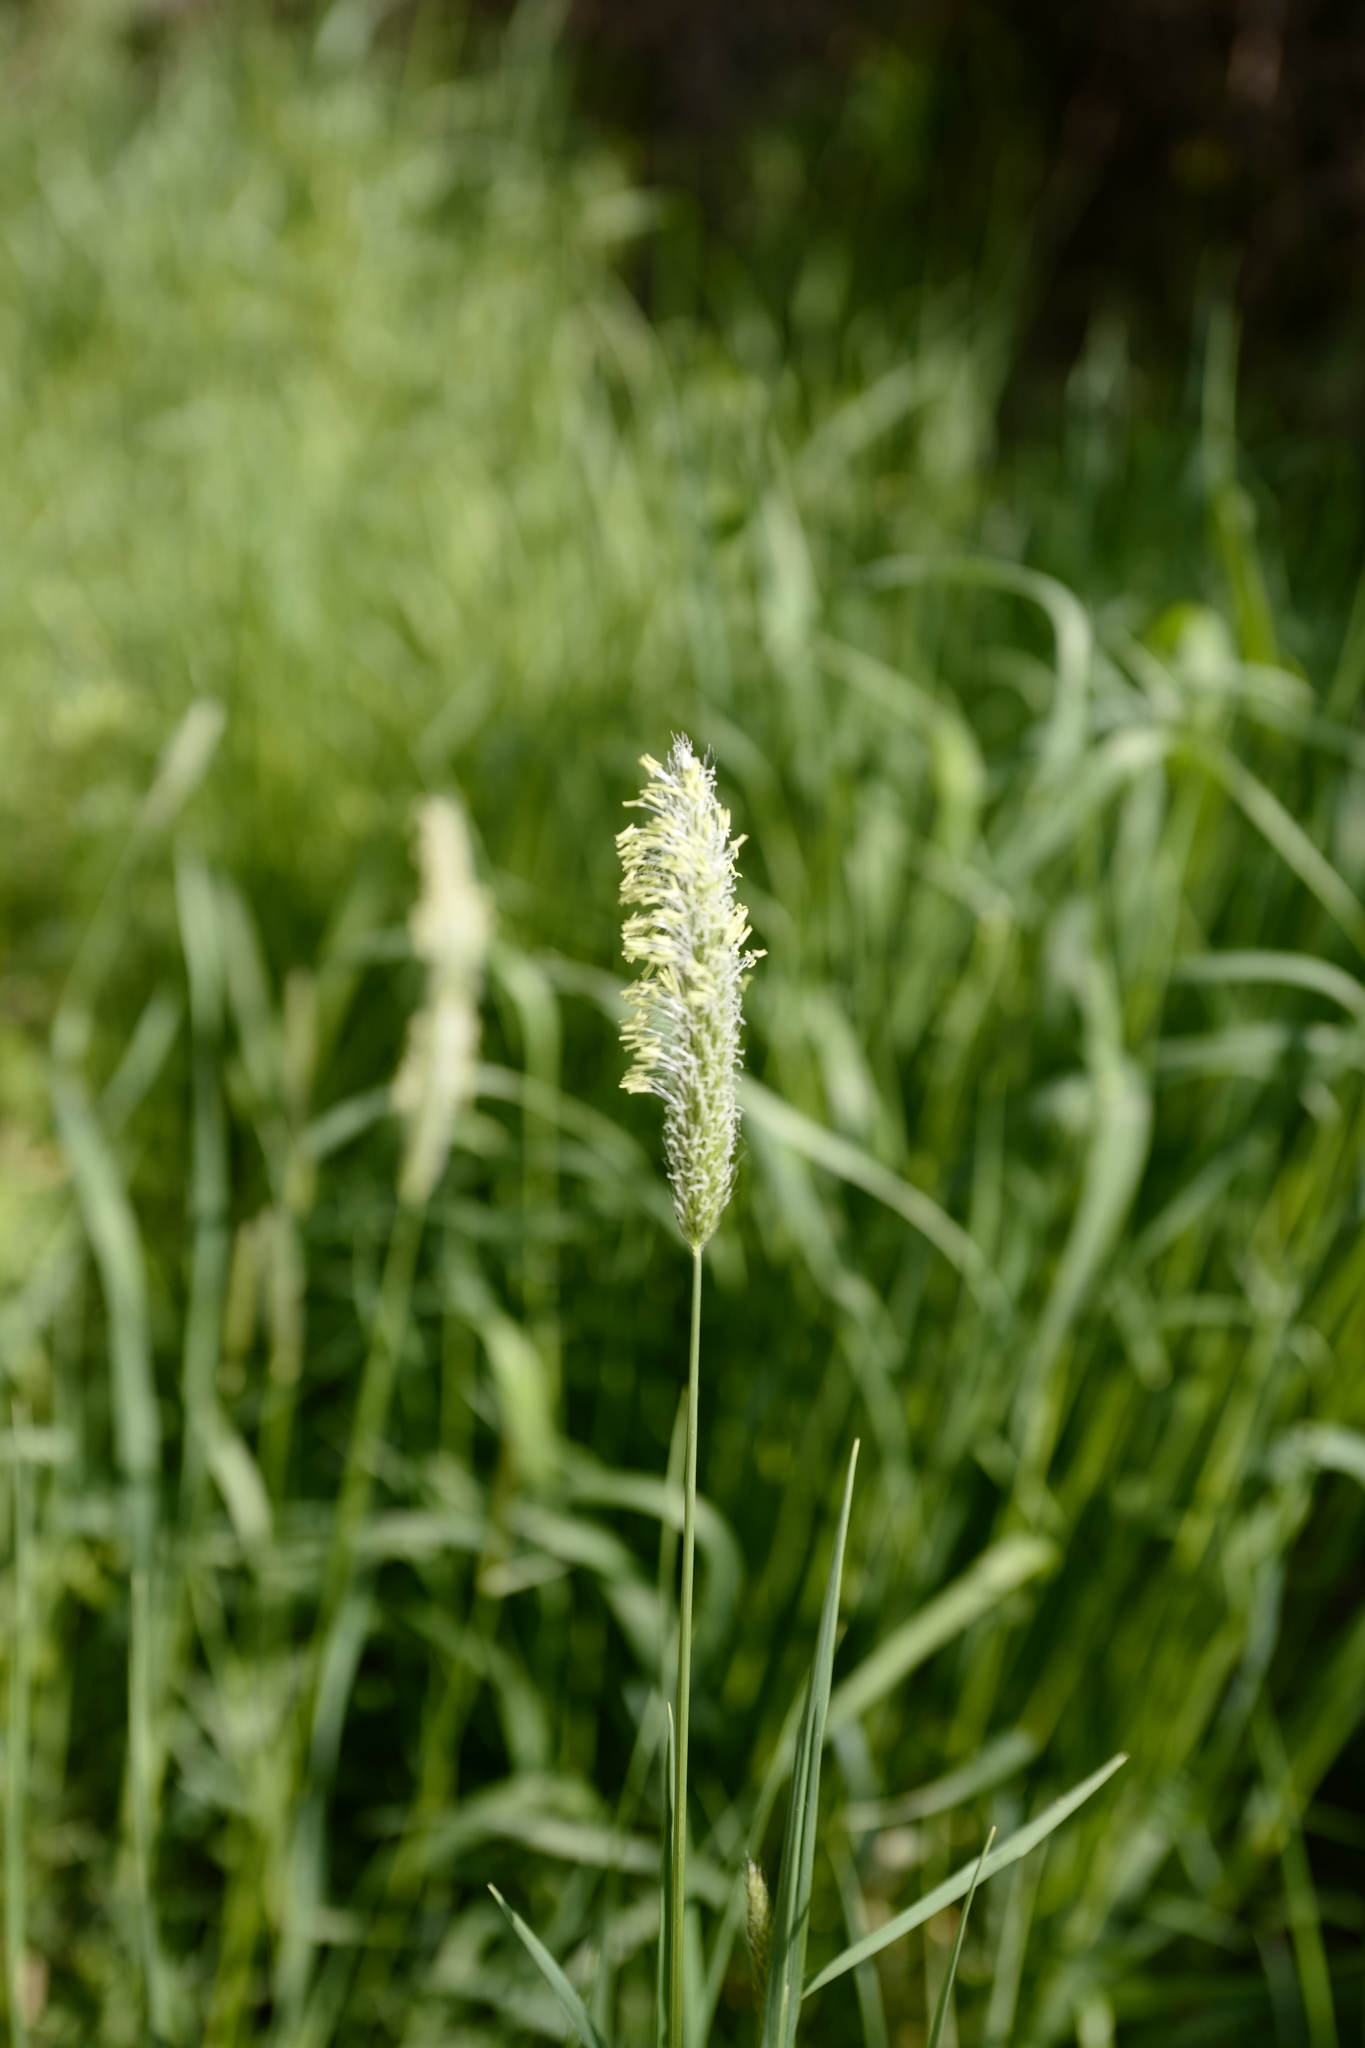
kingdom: Plantae
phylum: Tracheophyta
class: Liliopsida
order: Poales
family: Poaceae
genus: Alopecurus
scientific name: Alopecurus pratensis
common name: Meadow foxtail
